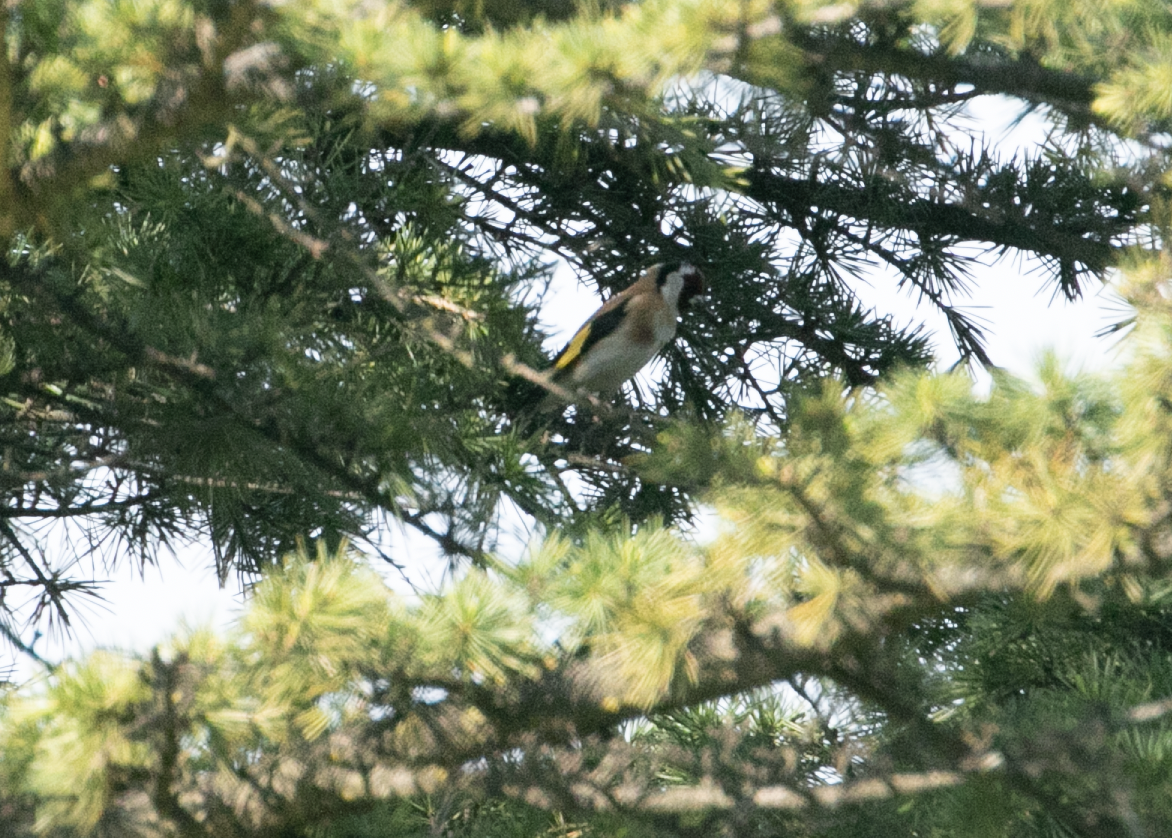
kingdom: Animalia
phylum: Chordata
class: Aves
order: Passeriformes
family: Fringillidae
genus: Carduelis
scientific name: Carduelis carduelis
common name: European goldfinch
